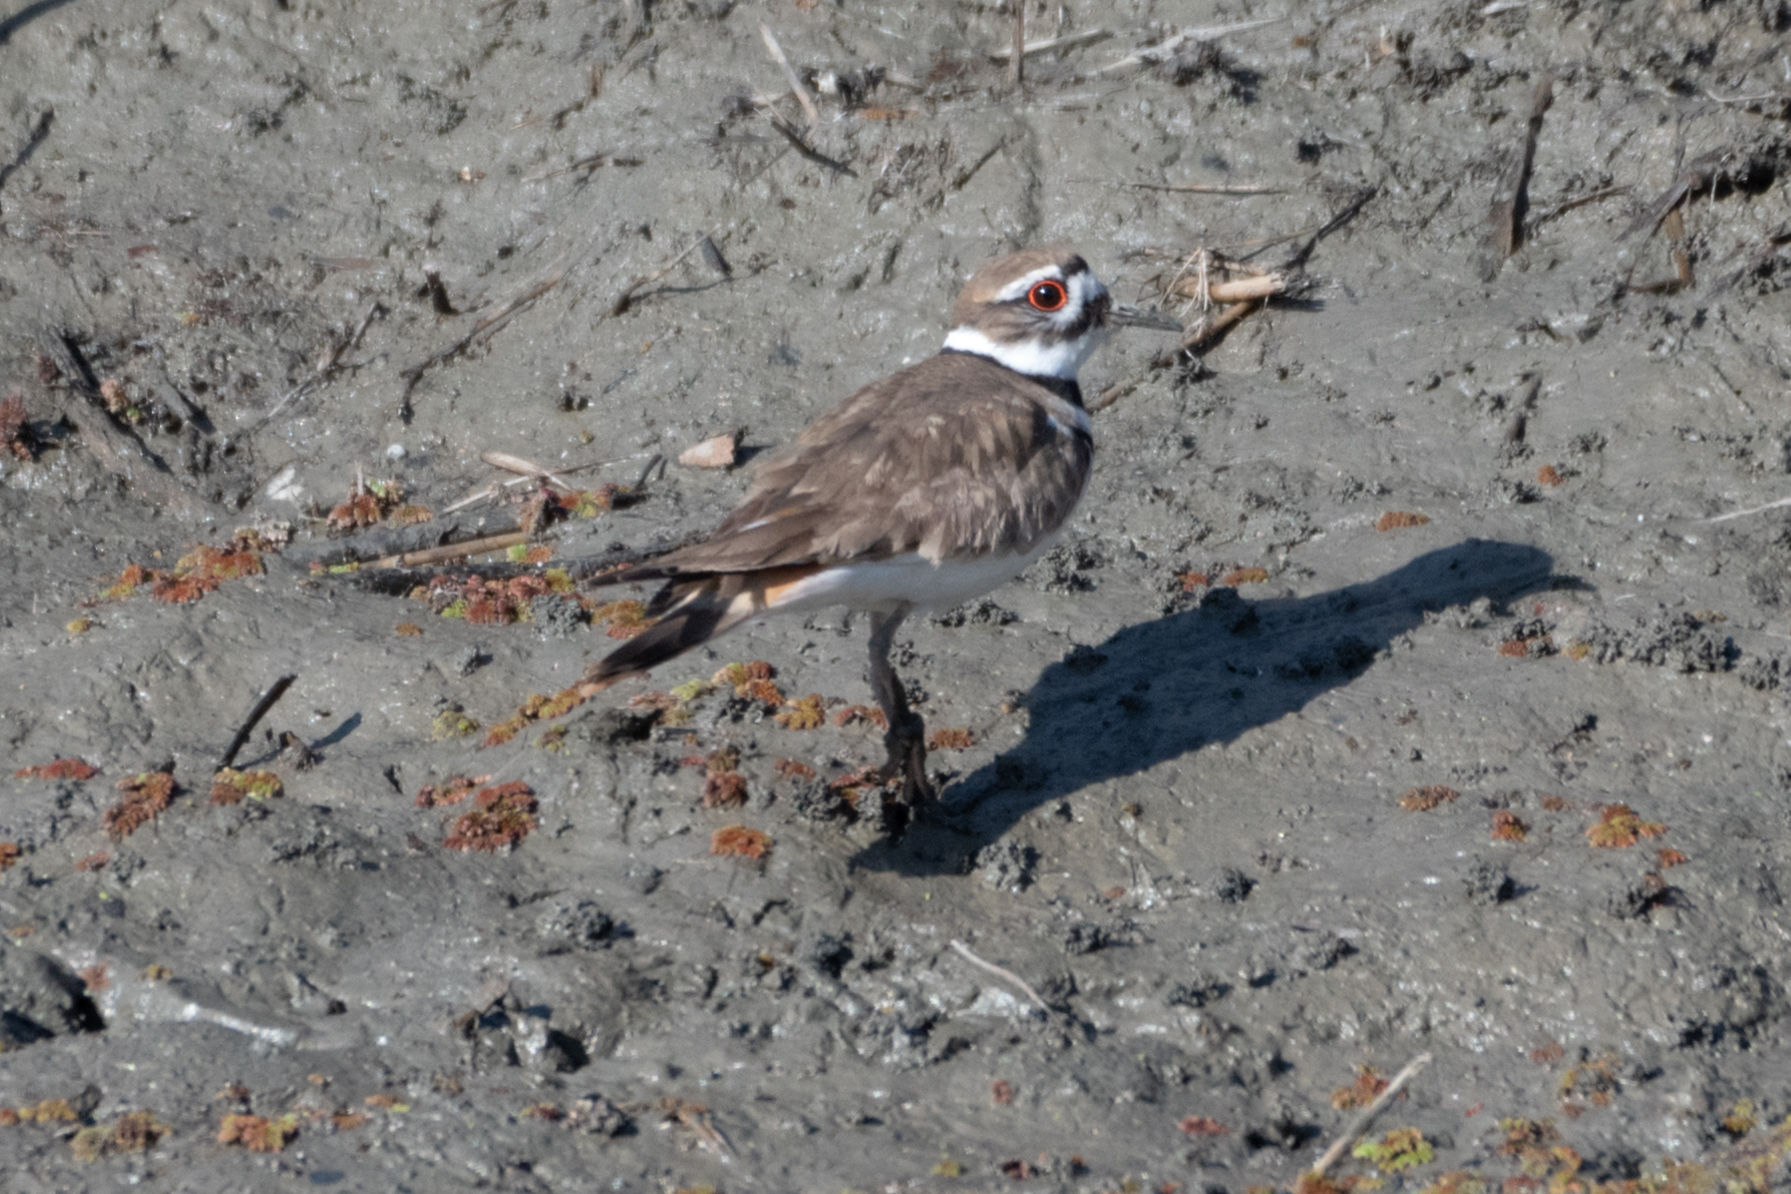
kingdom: Animalia
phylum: Chordata
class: Aves
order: Charadriiformes
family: Charadriidae
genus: Charadrius
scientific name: Charadrius vociferus
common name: Killdeer
